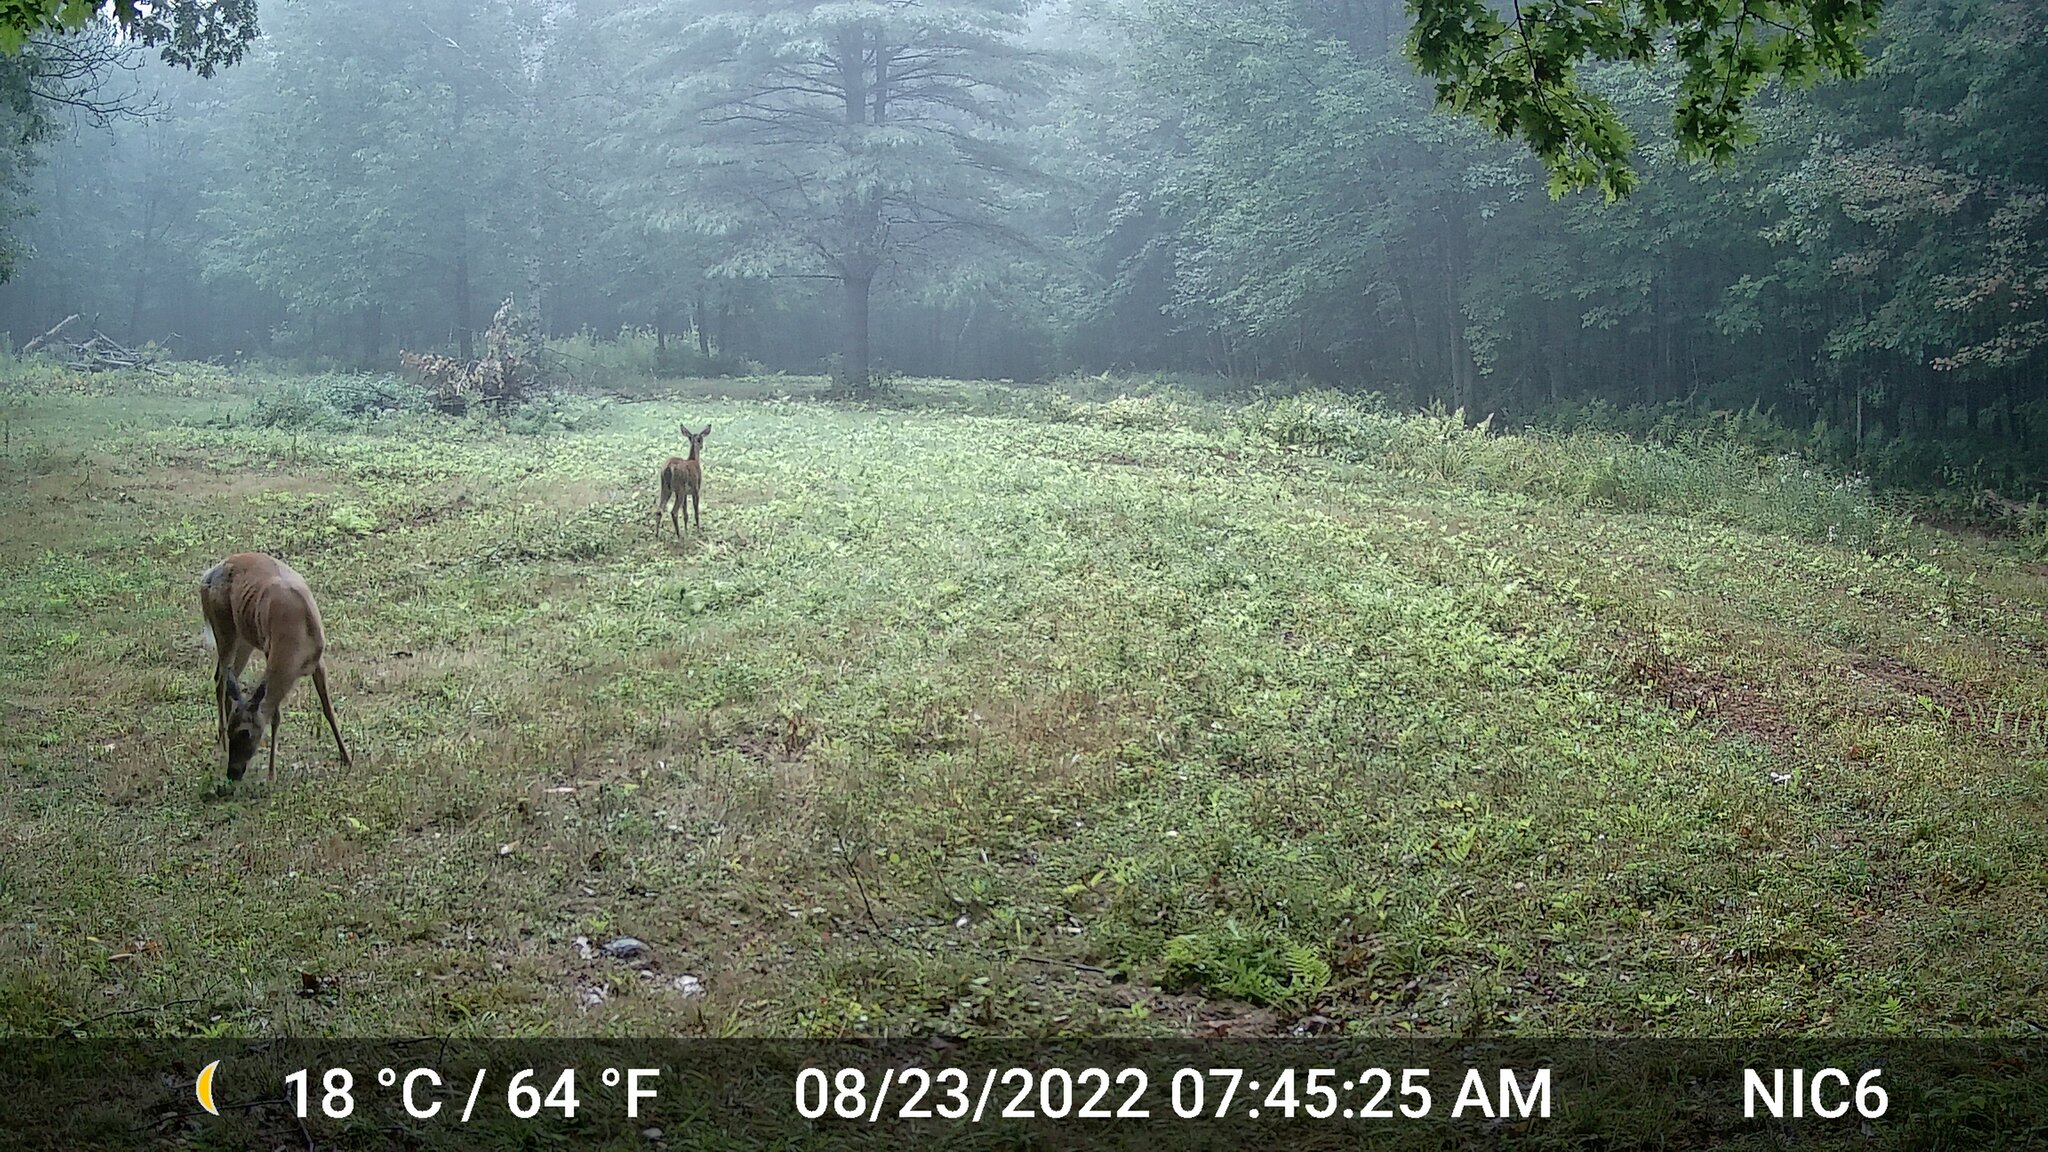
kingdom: Animalia
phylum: Chordata
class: Mammalia
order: Artiodactyla
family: Cervidae
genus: Odocoileus
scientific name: Odocoileus virginianus
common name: White-tailed deer
